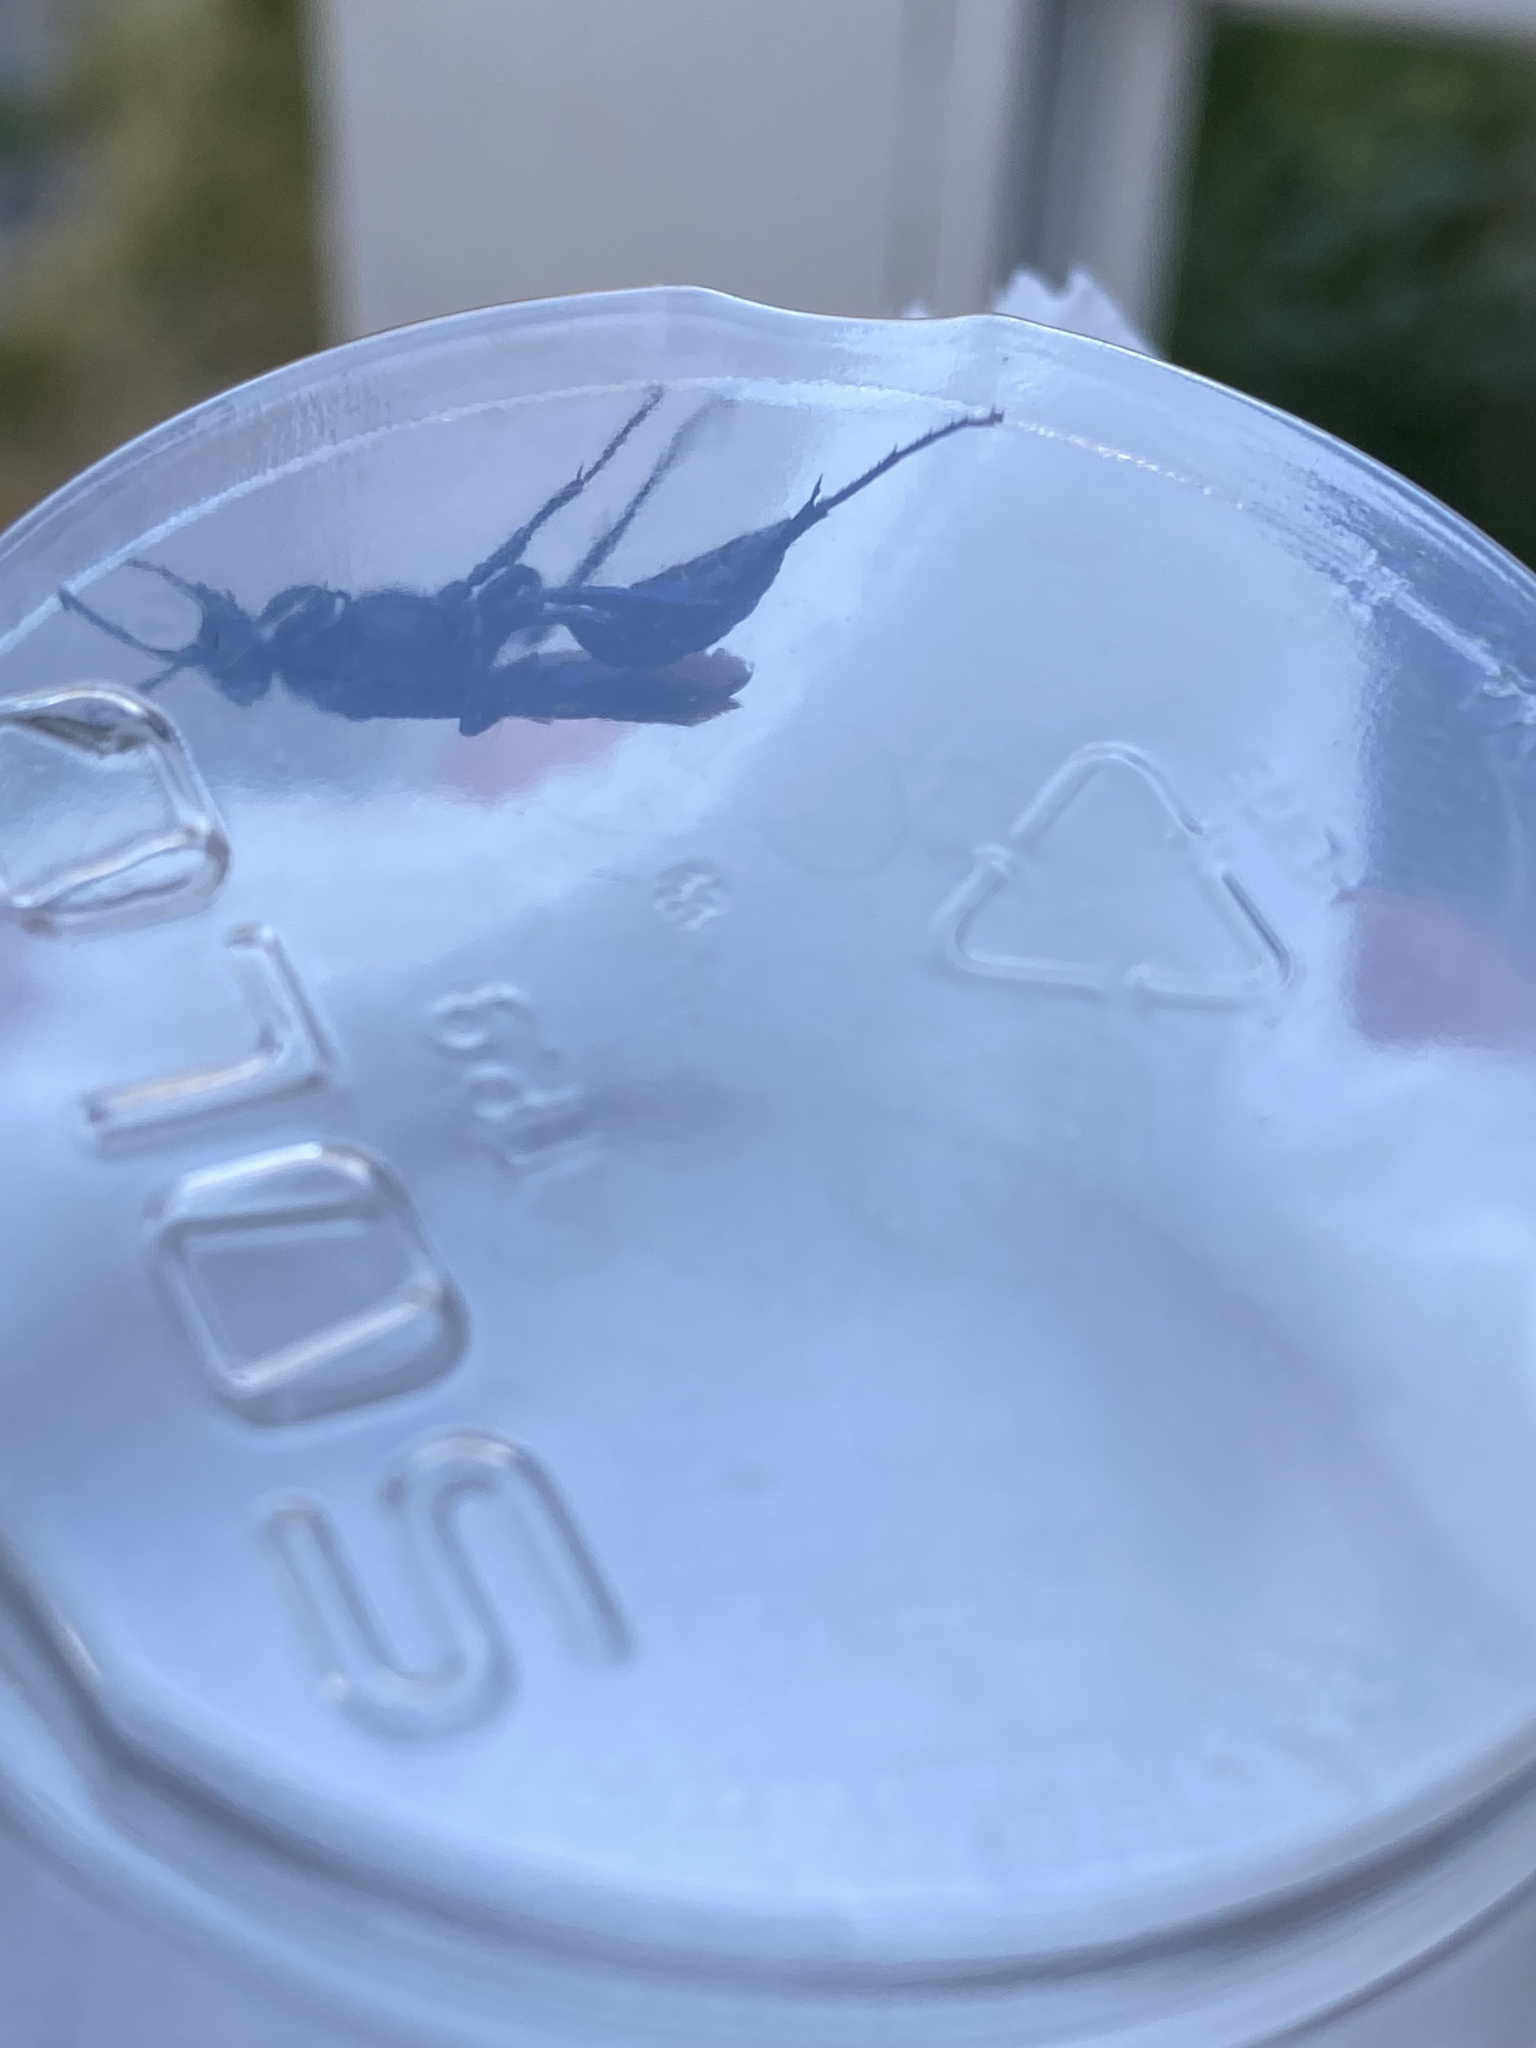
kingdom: Animalia
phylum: Arthropoda
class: Insecta
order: Hymenoptera
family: Sphecidae
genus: Chalybion
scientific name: Chalybion californicum
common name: Mud dauber
